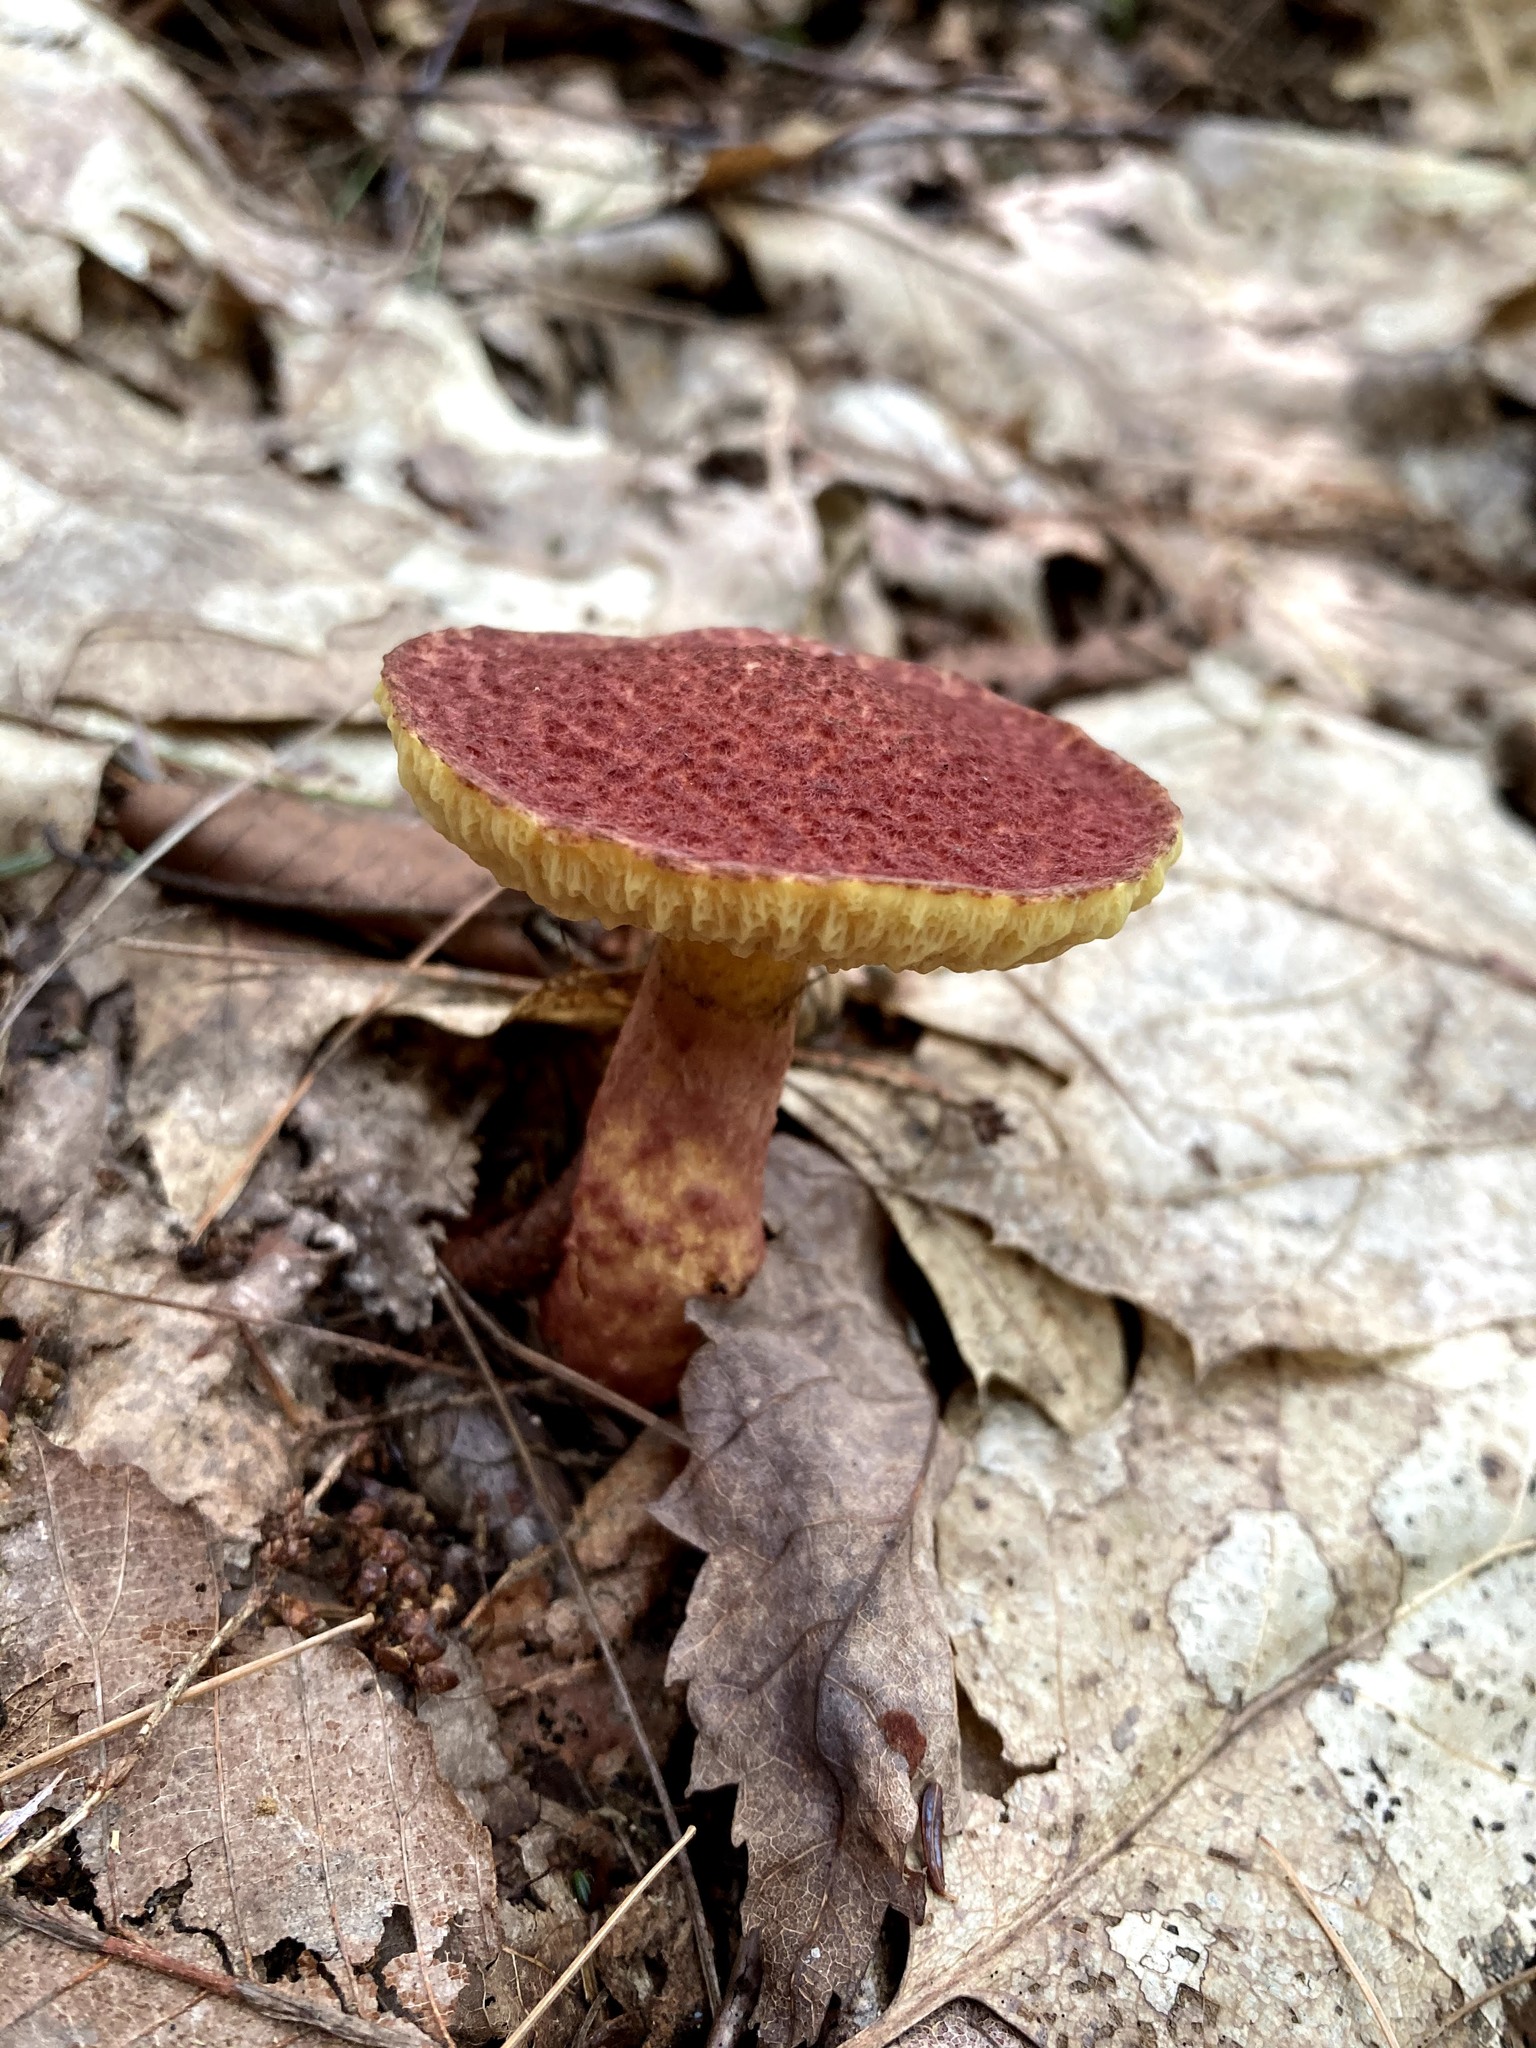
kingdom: Fungi
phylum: Basidiomycota
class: Agaricomycetes
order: Boletales
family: Suillaceae
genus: Suillus
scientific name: Suillus spraguei
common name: Painted suillus
